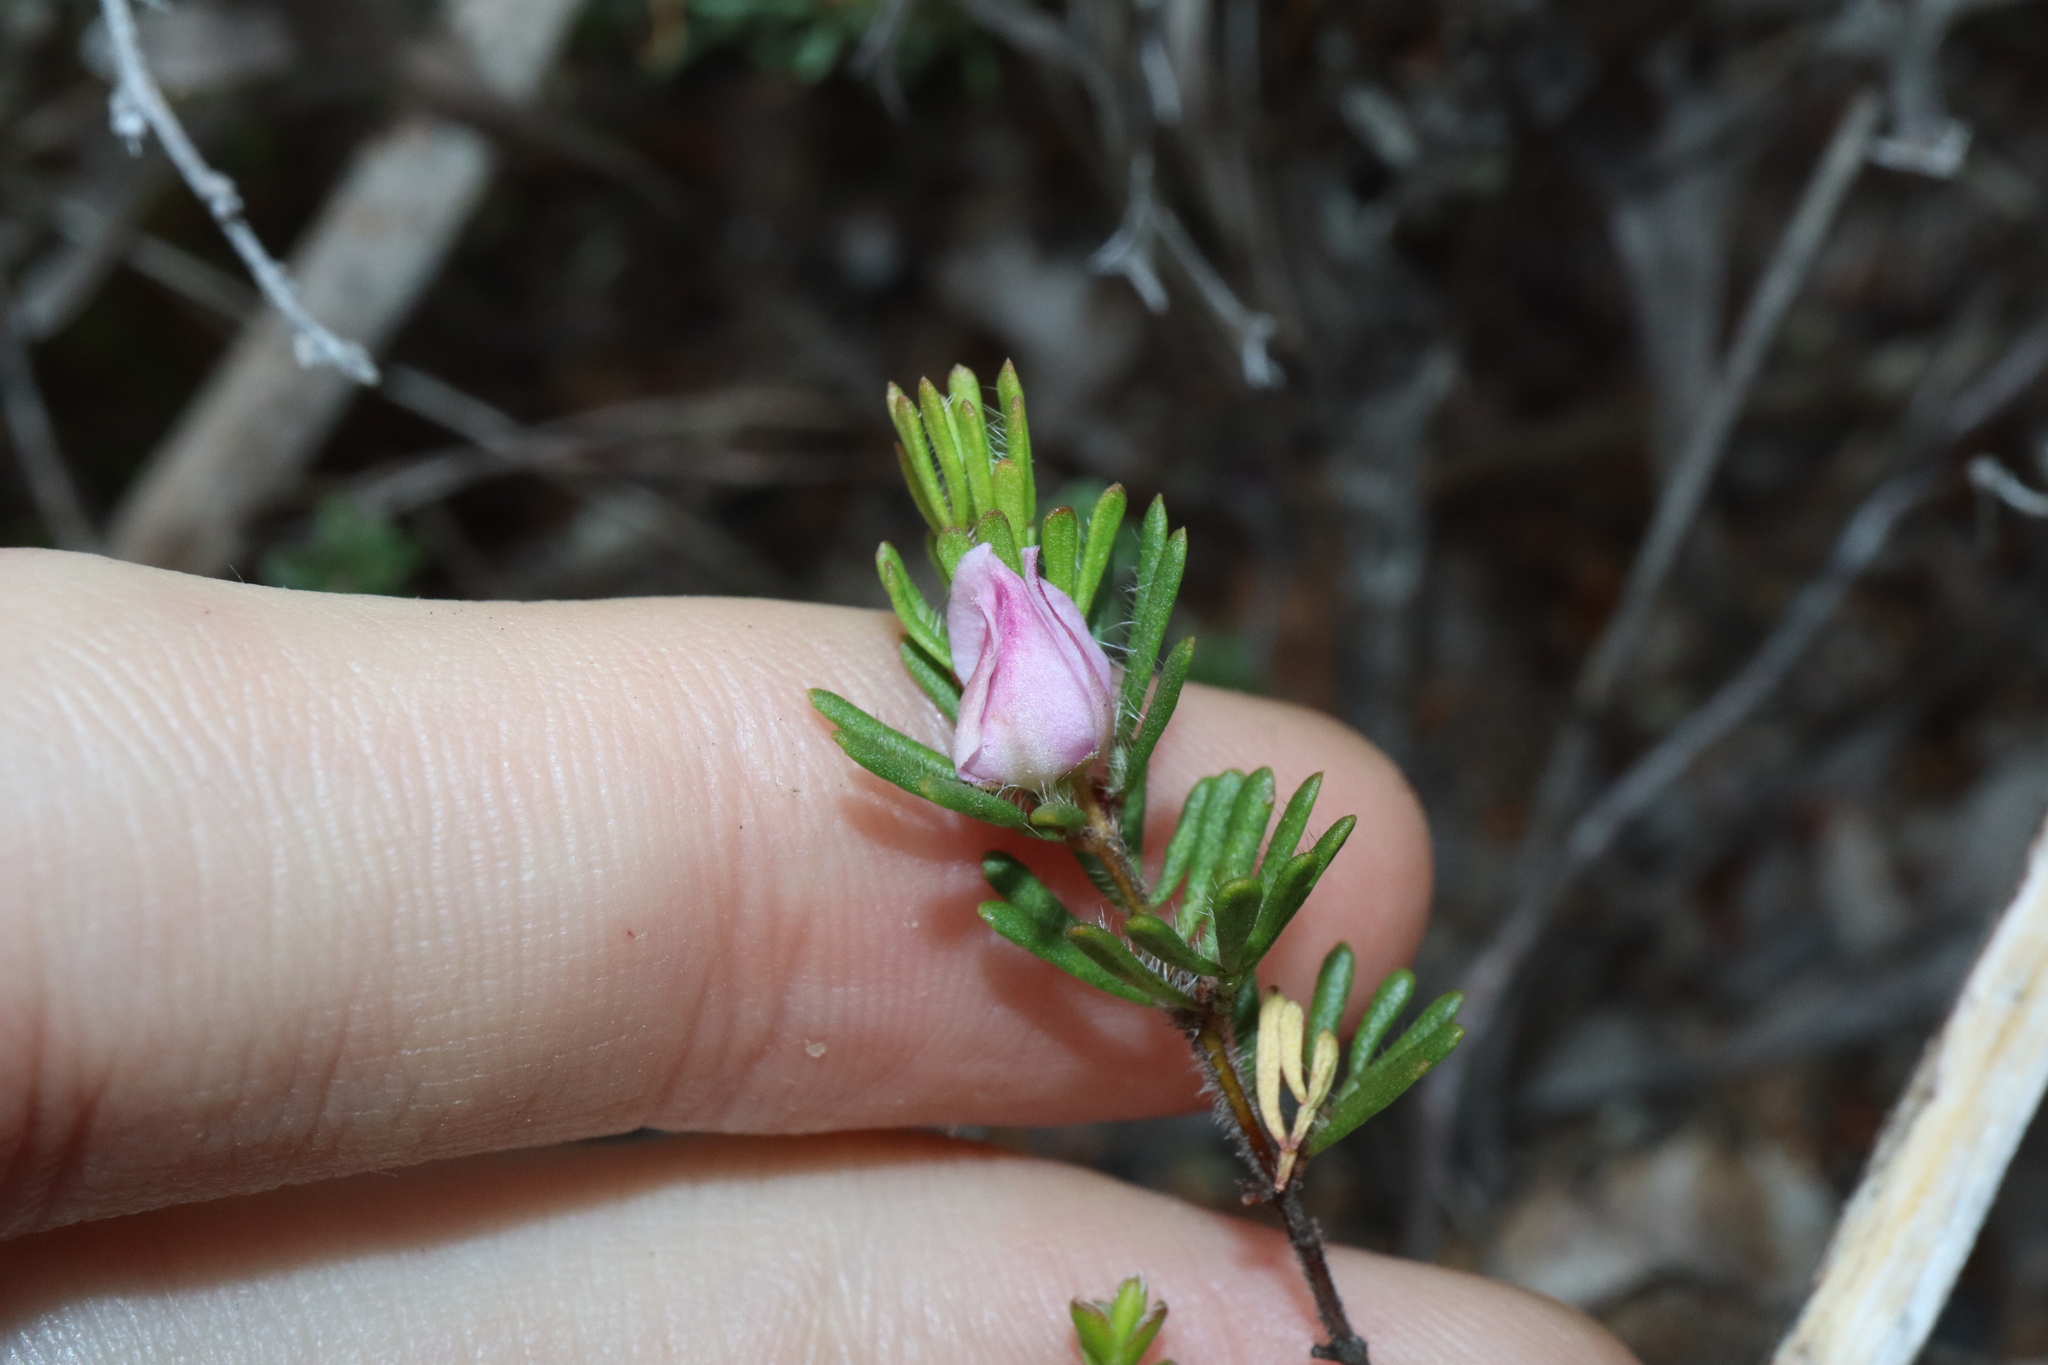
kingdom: Plantae
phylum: Tracheophyta
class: Magnoliopsida
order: Sapindales
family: Rutaceae
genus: Boronia
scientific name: Boronia albiflora
